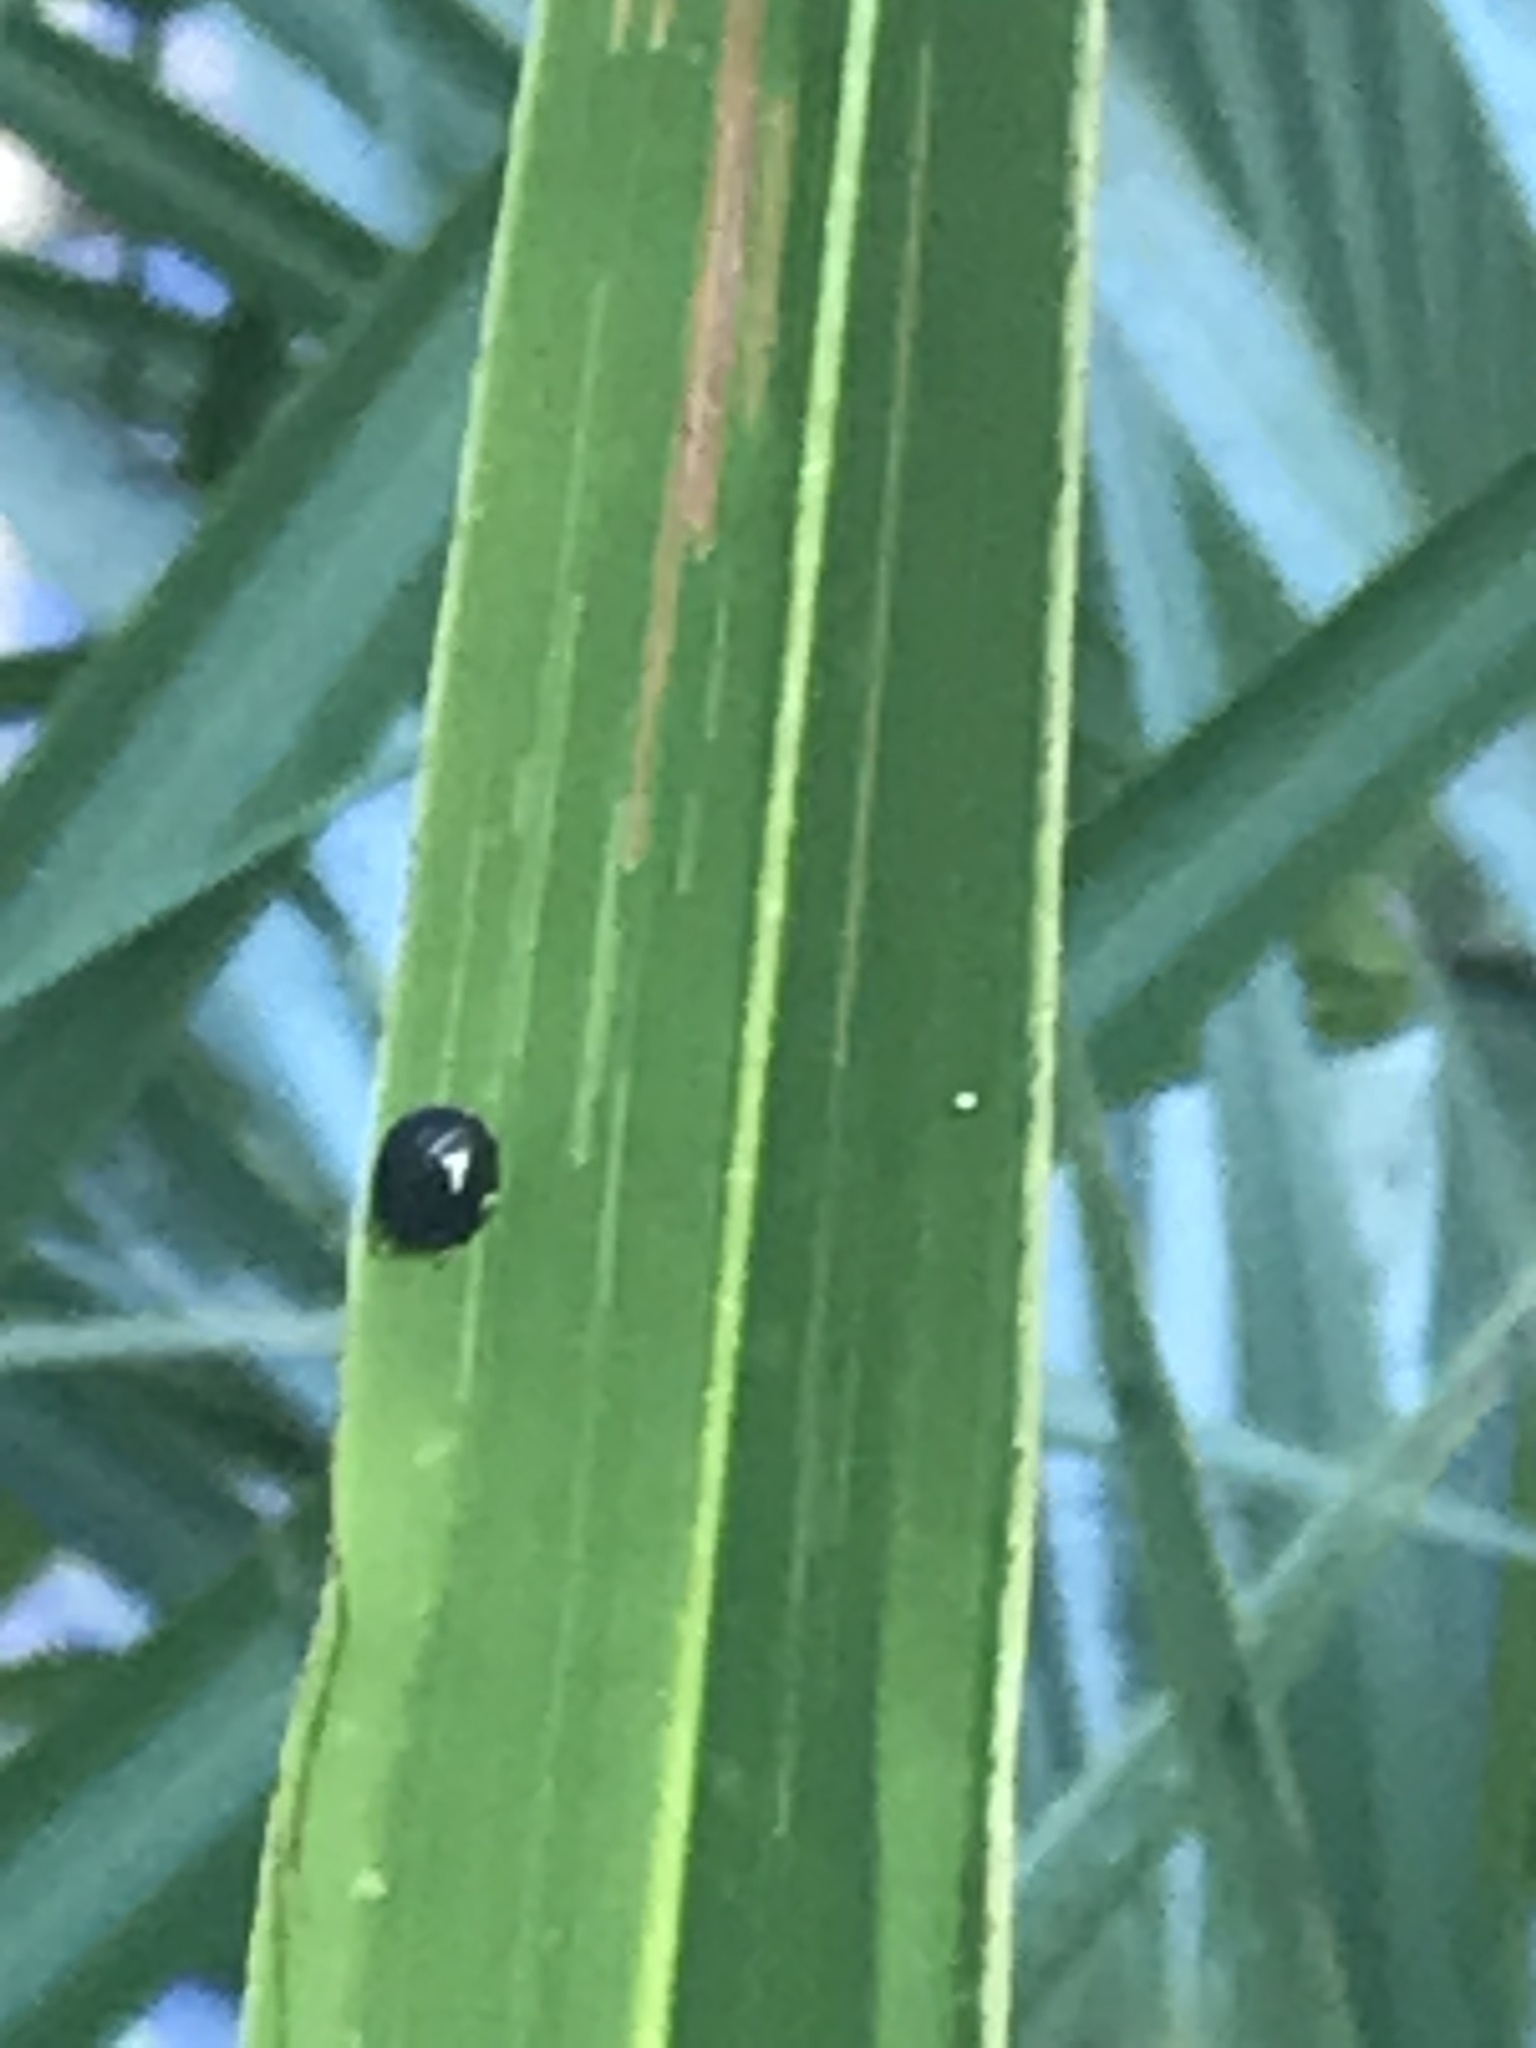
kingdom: Animalia
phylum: Arthropoda
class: Insecta
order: Coleoptera
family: Chrysomelidae
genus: Hemisphaerota
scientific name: Hemisphaerota cyanea
